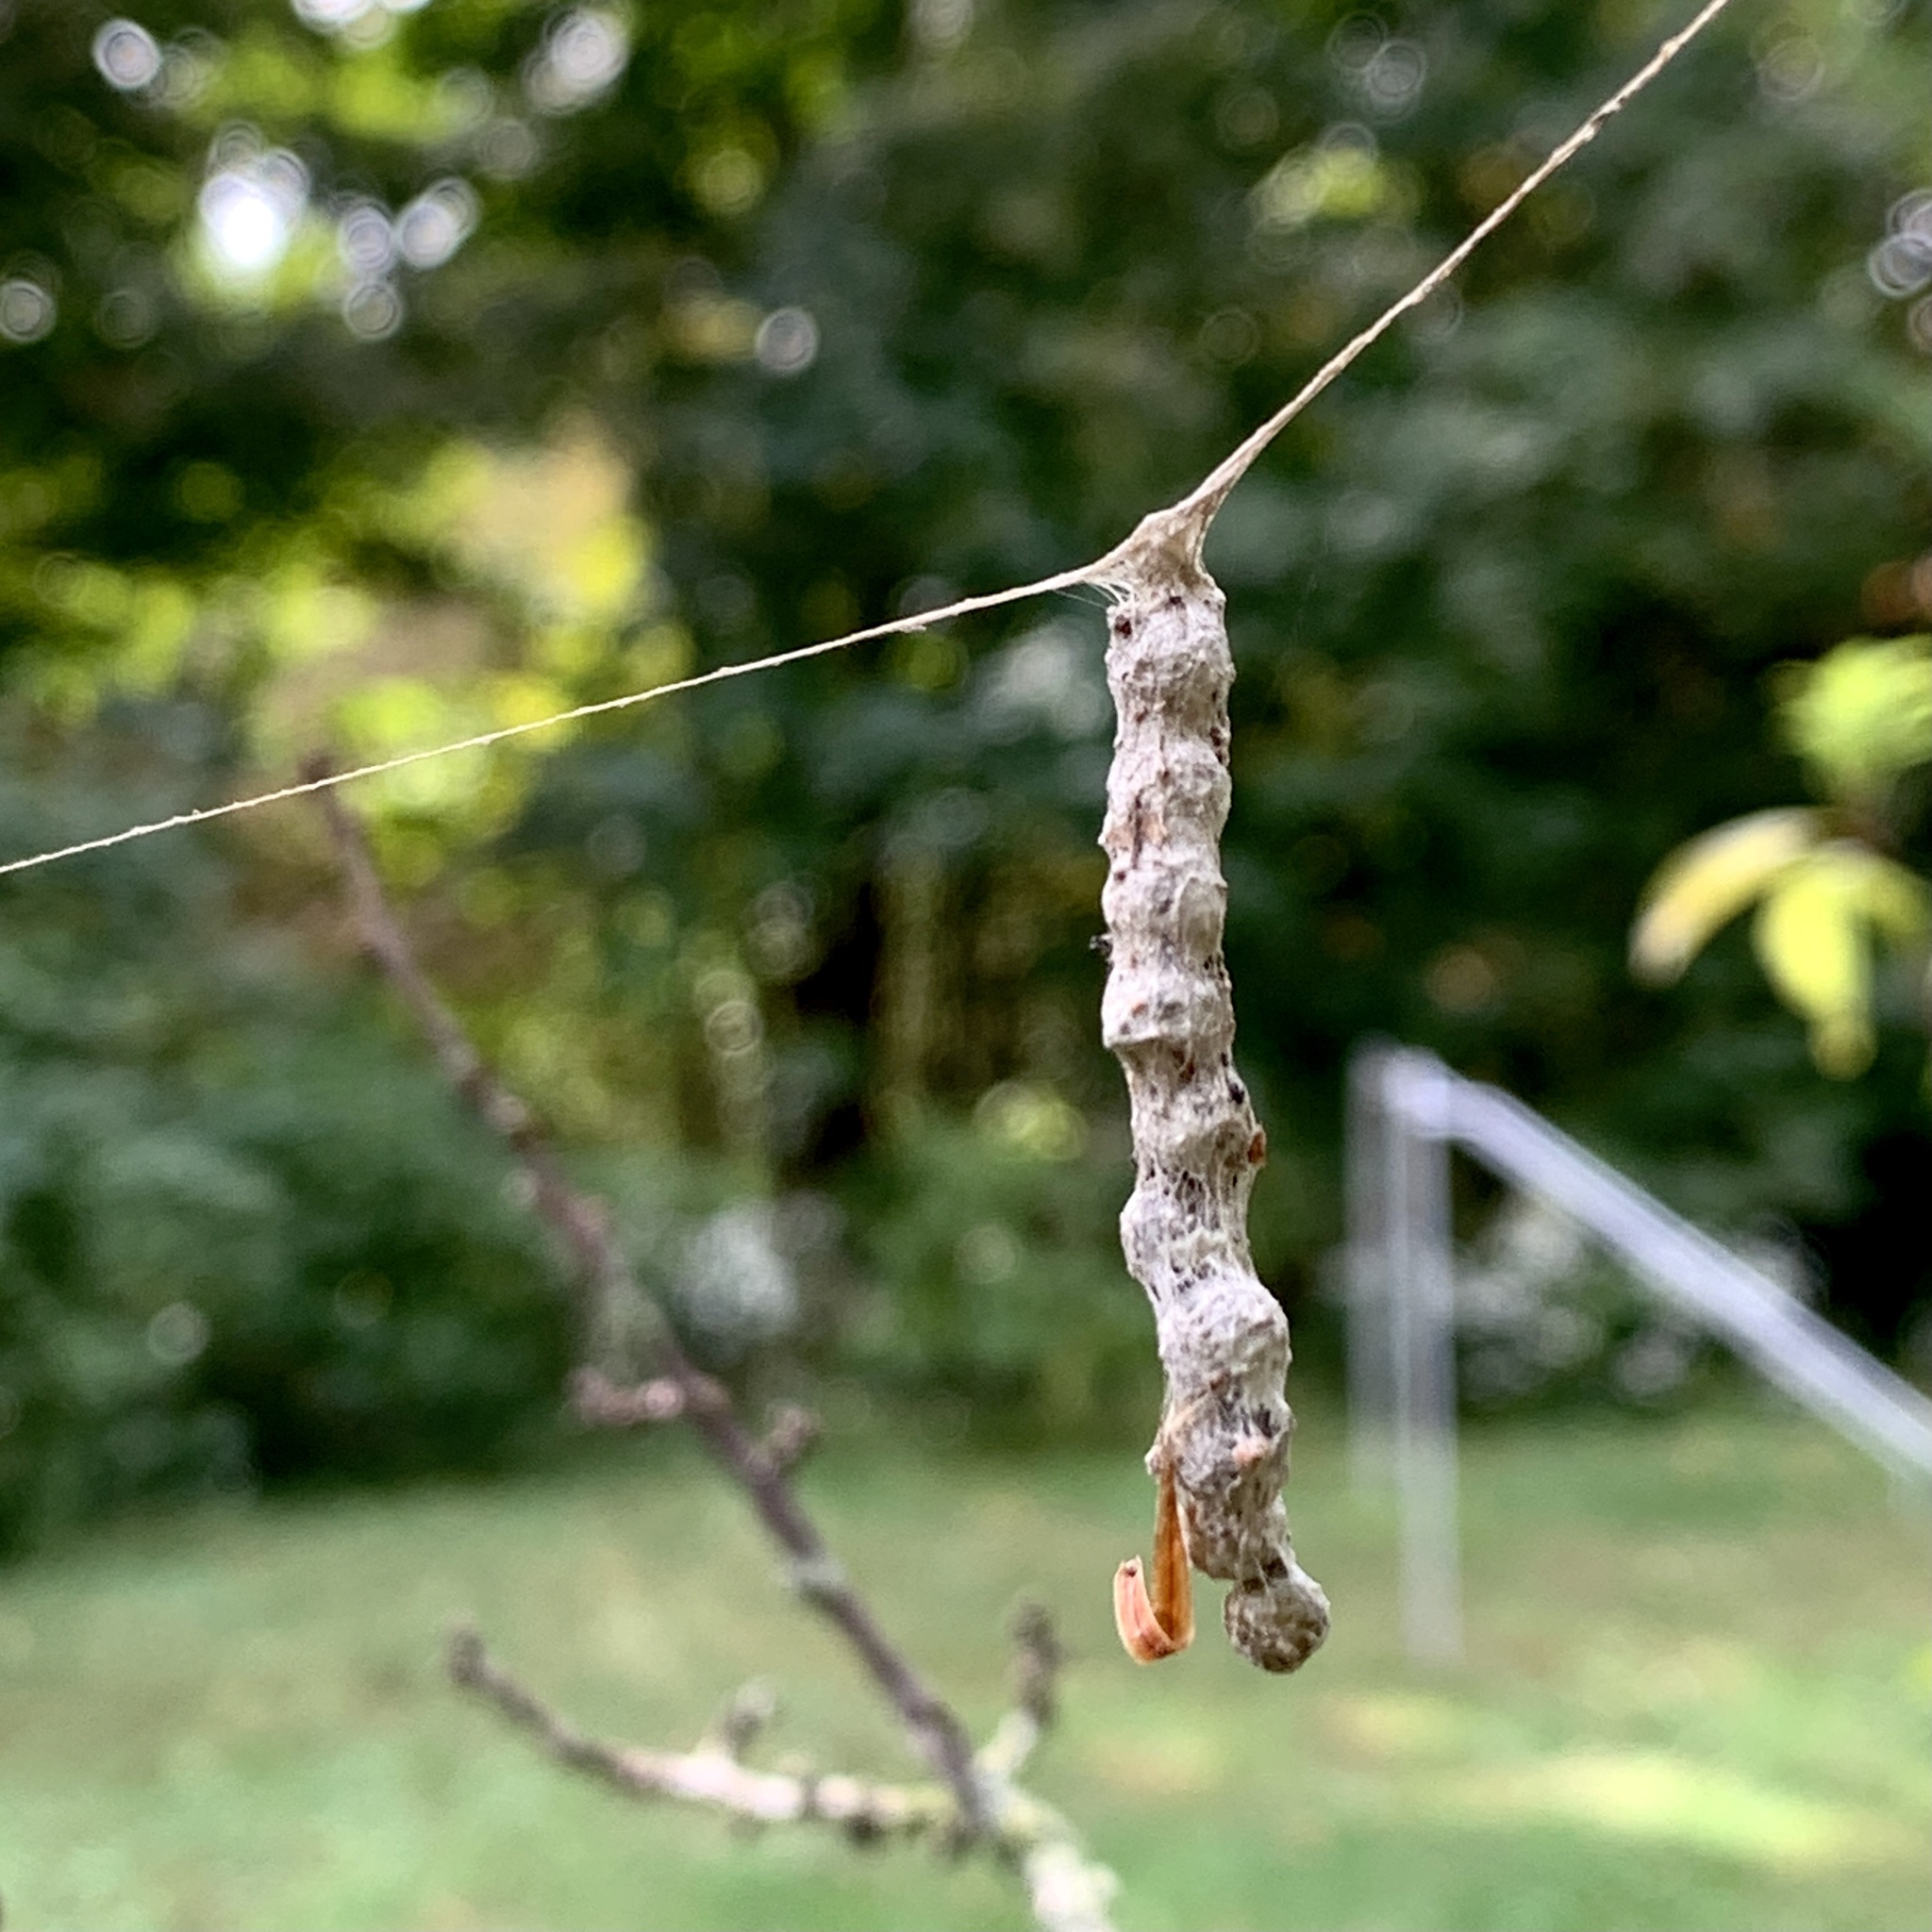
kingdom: Animalia
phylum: Arthropoda
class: Arachnida
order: Araneae
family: Araneidae
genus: Mecynogea
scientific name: Mecynogea lemniscata
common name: Orb weavers
